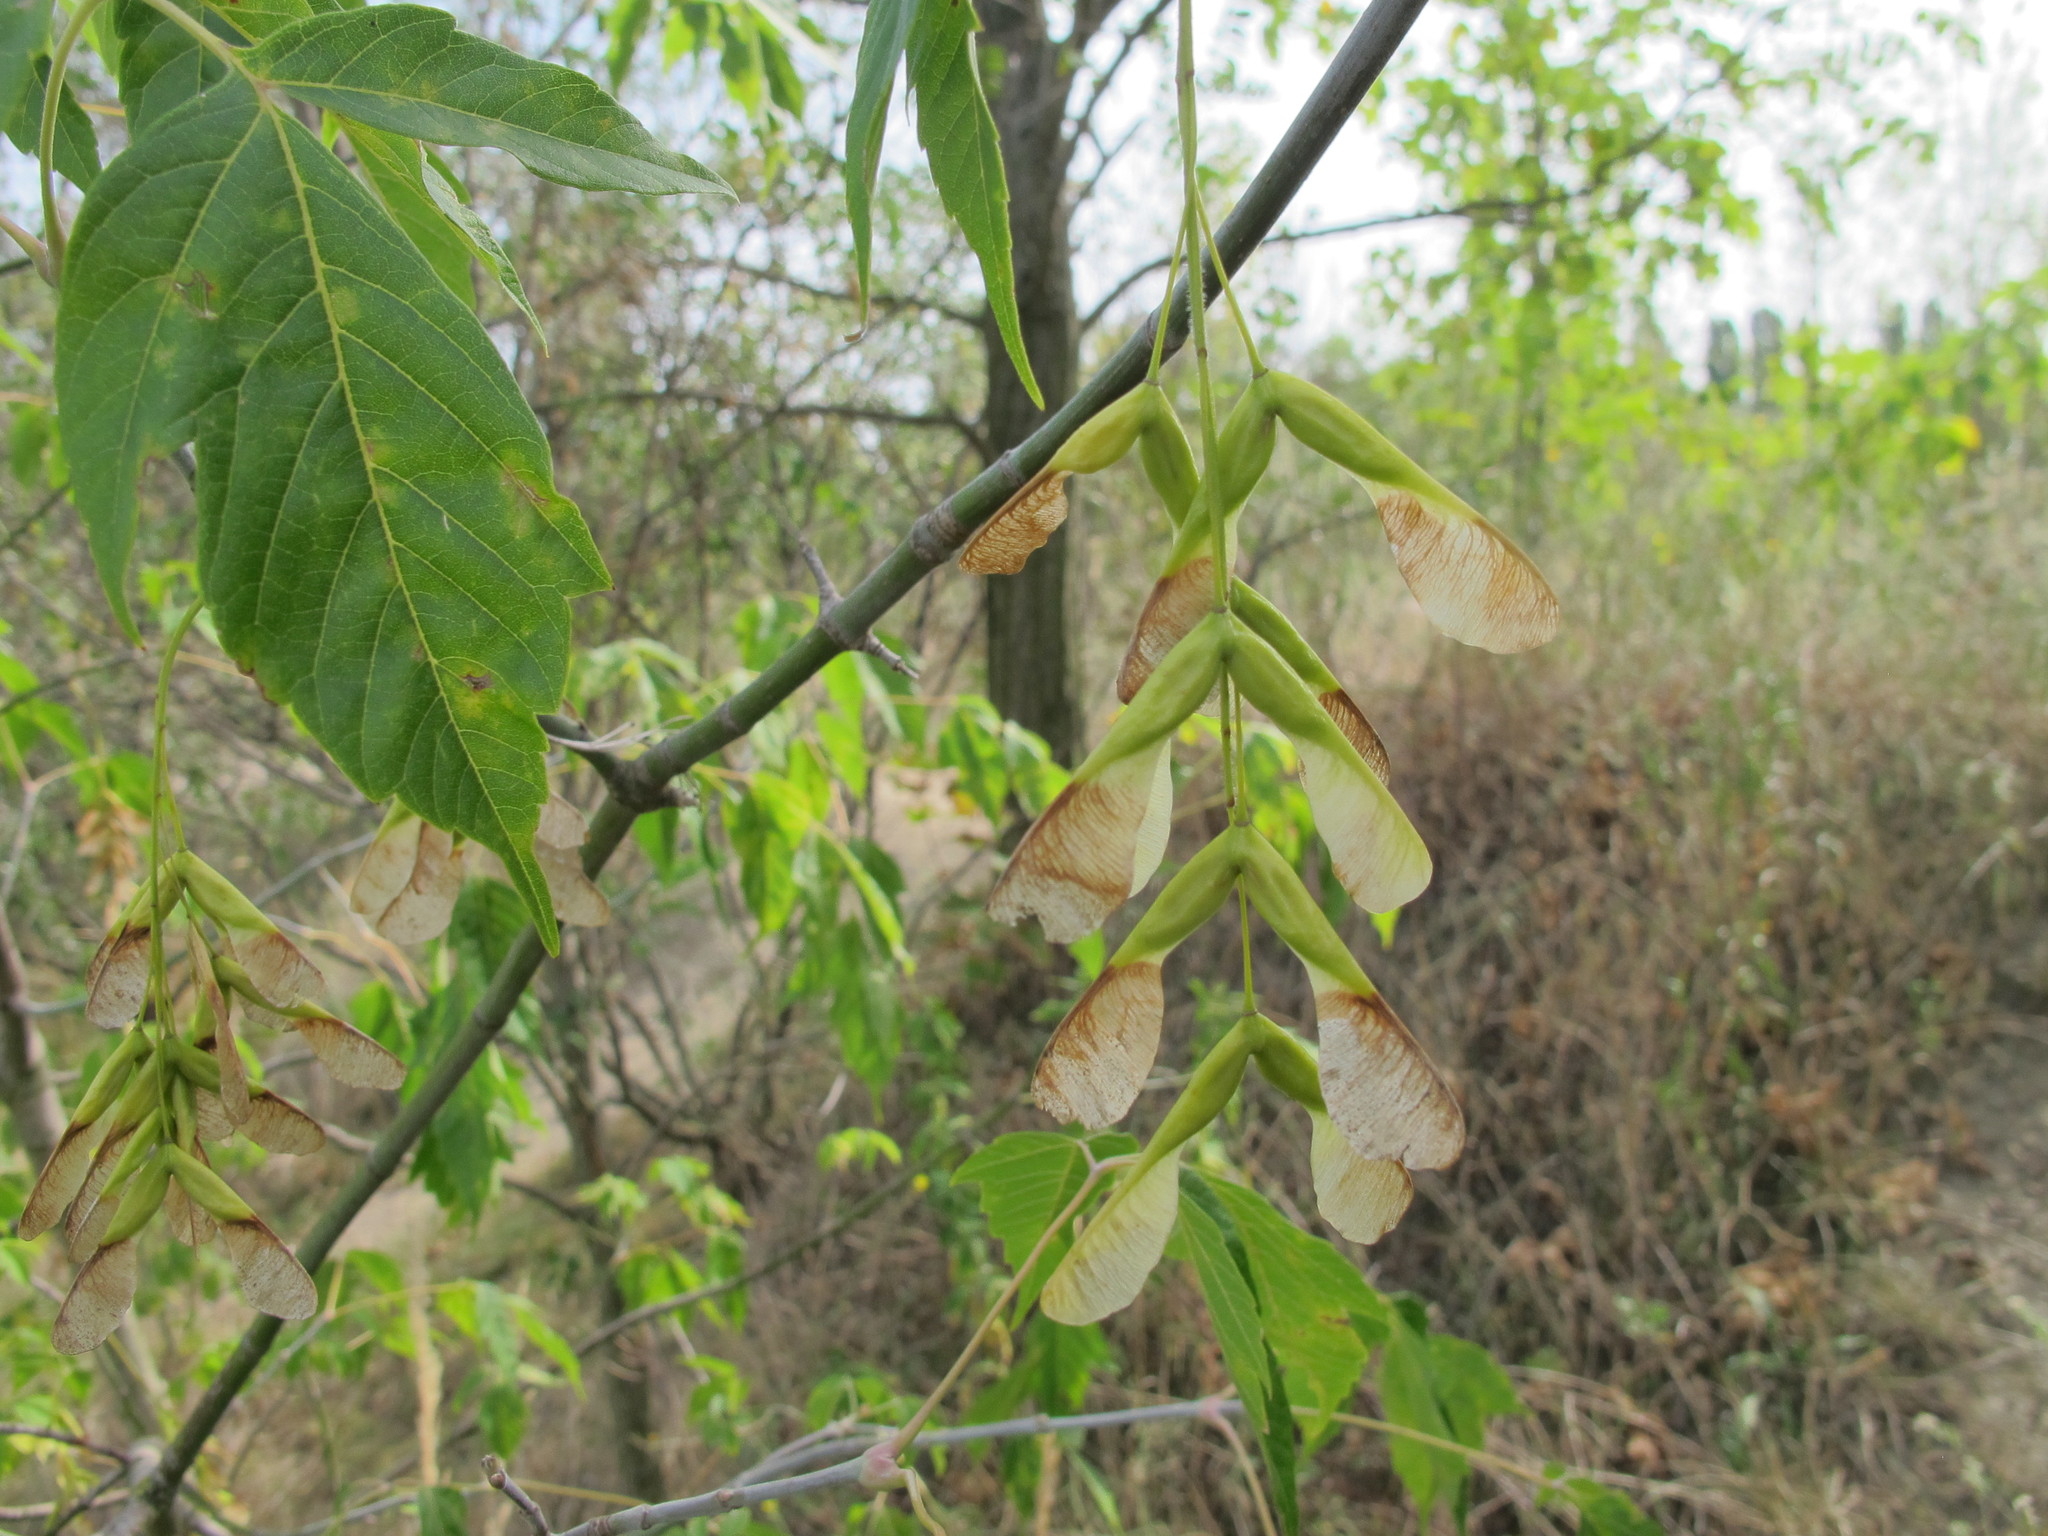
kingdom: Plantae
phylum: Tracheophyta
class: Magnoliopsida
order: Sapindales
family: Sapindaceae
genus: Acer
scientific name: Acer negundo
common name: Ashleaf maple
